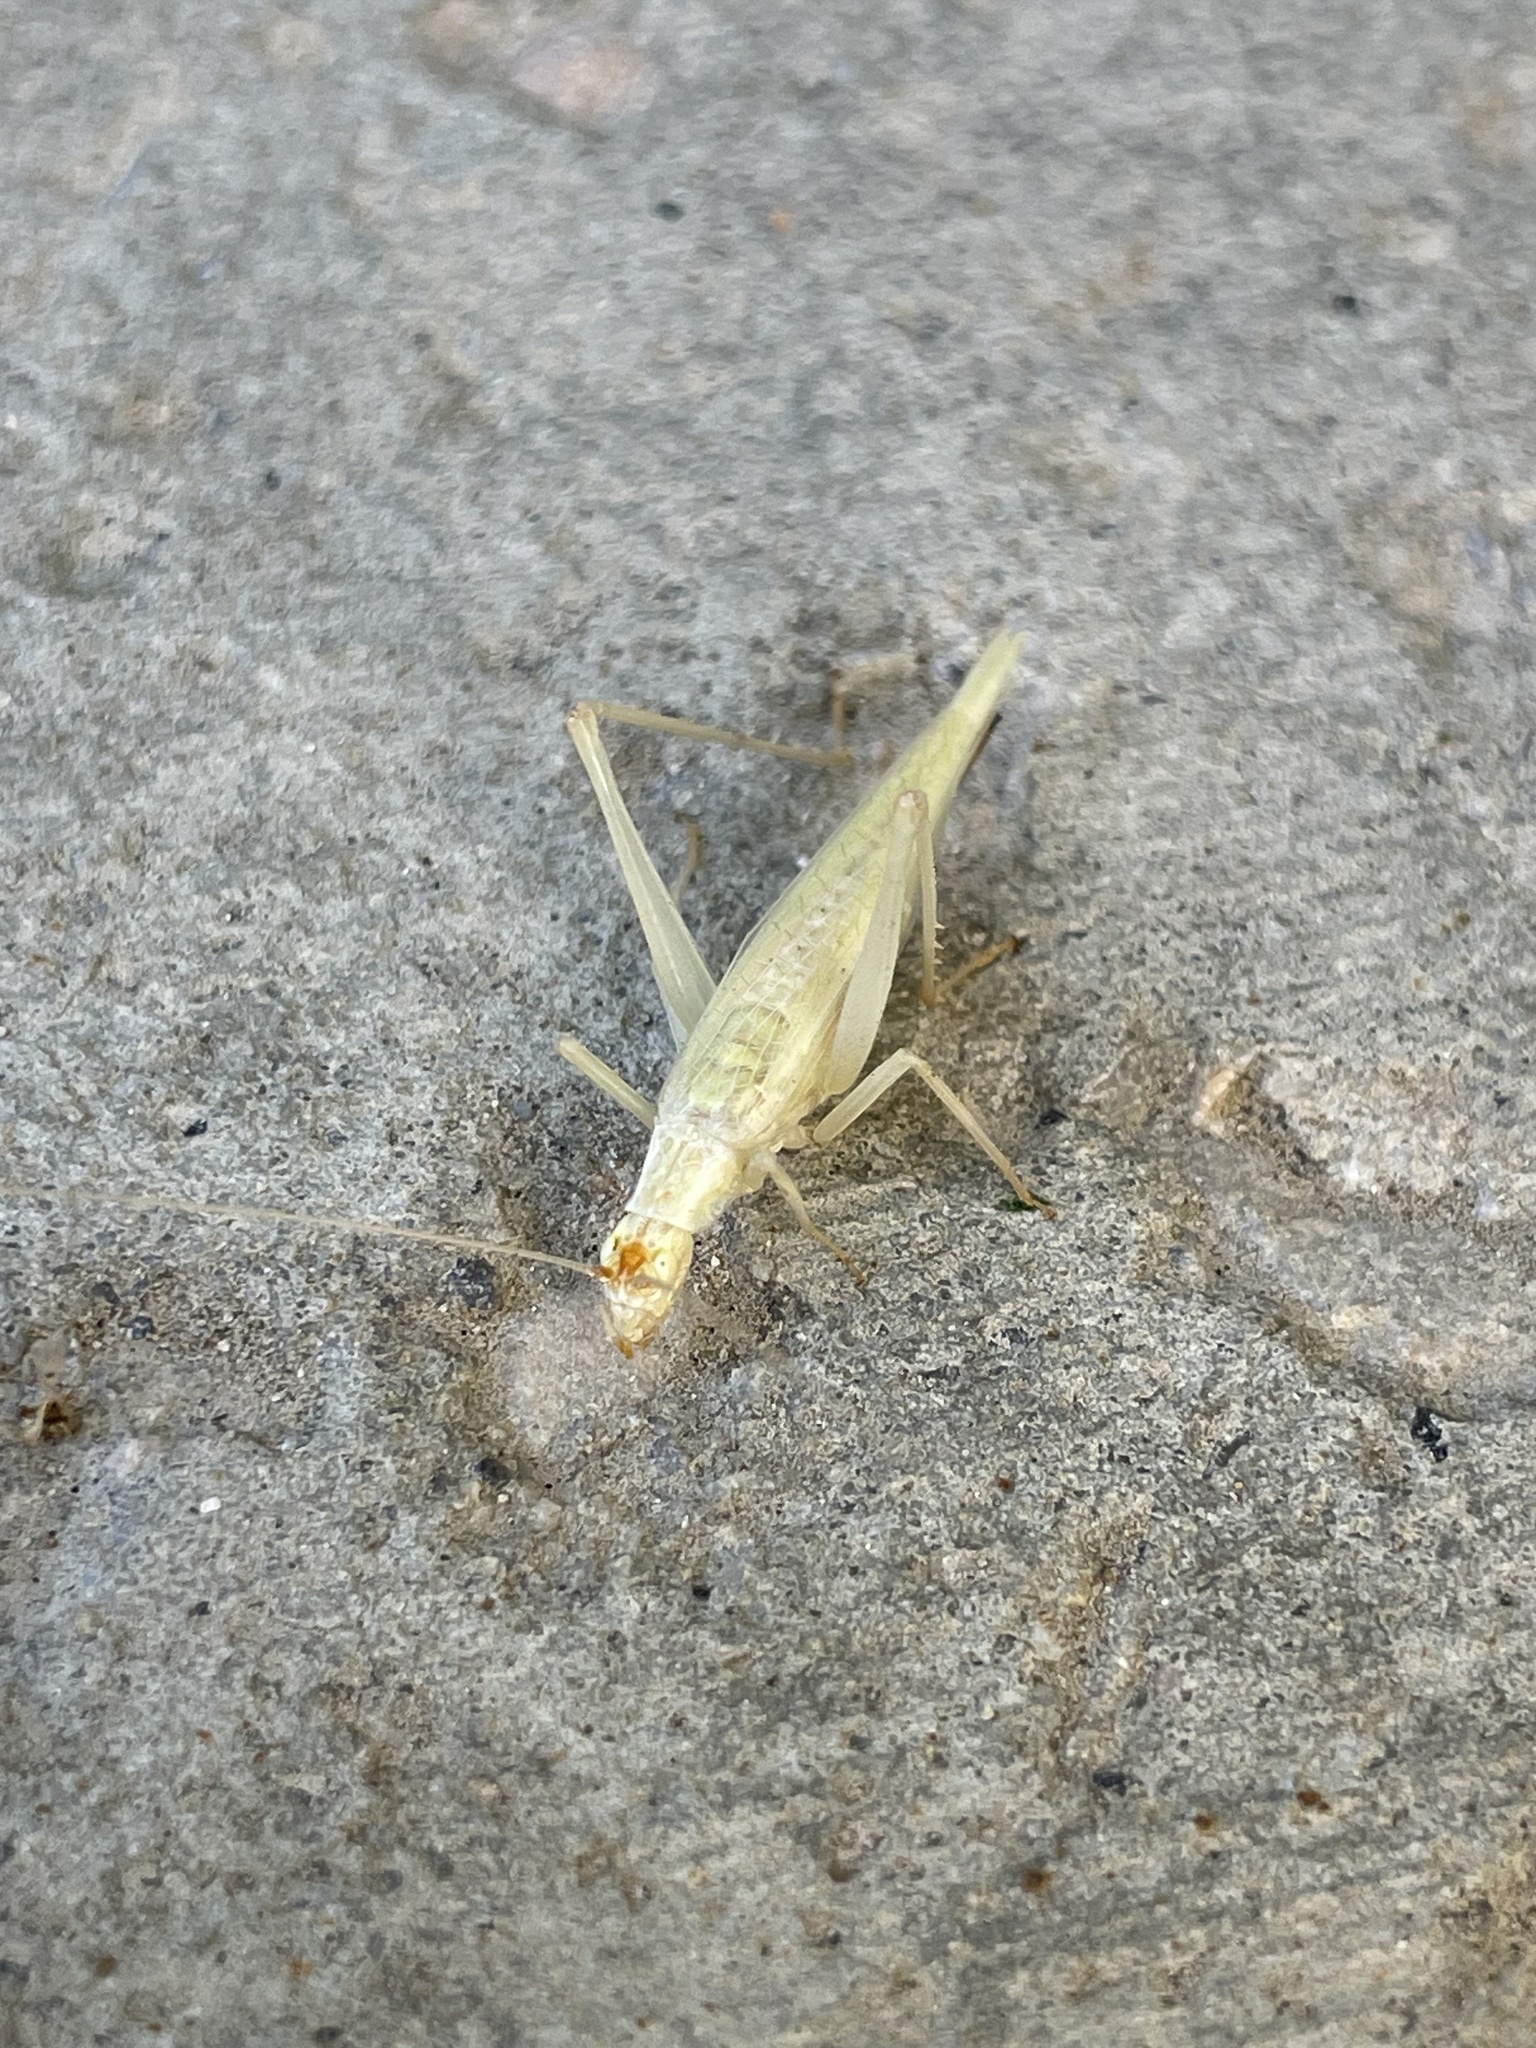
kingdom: Animalia
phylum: Arthropoda
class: Insecta
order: Orthoptera
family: Gryllidae
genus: Oecanthus
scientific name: Oecanthus
